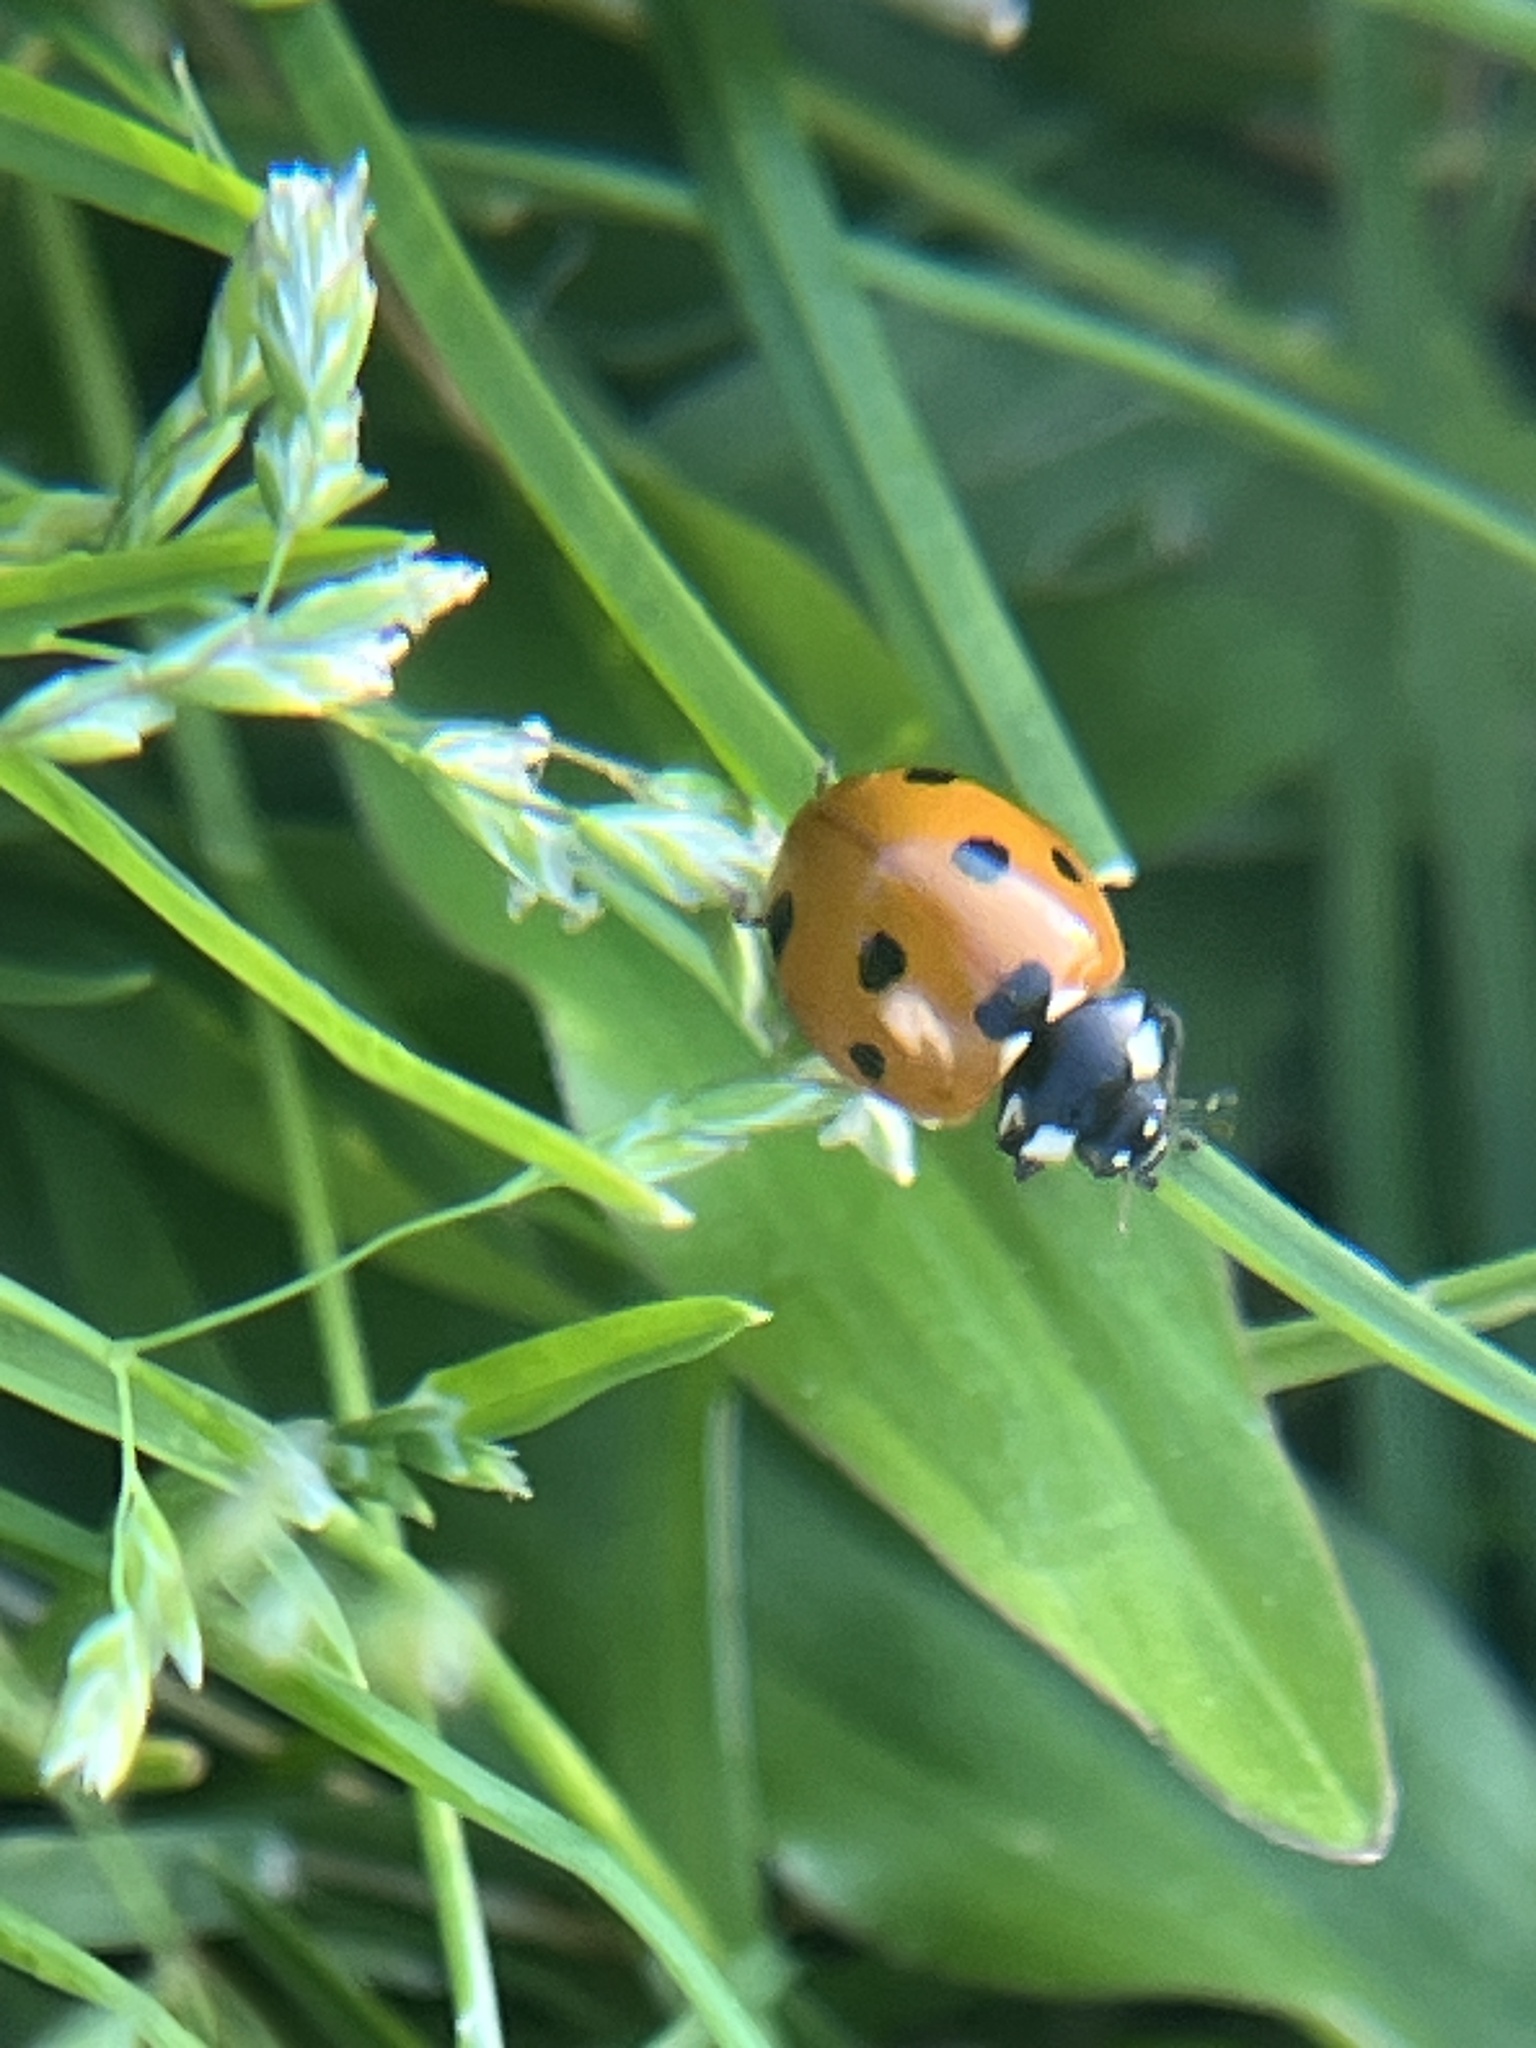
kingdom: Animalia
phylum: Arthropoda
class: Insecta
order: Coleoptera
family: Coccinellidae
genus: Coccinella
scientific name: Coccinella septempunctata
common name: Sevenspotted lady beetle
